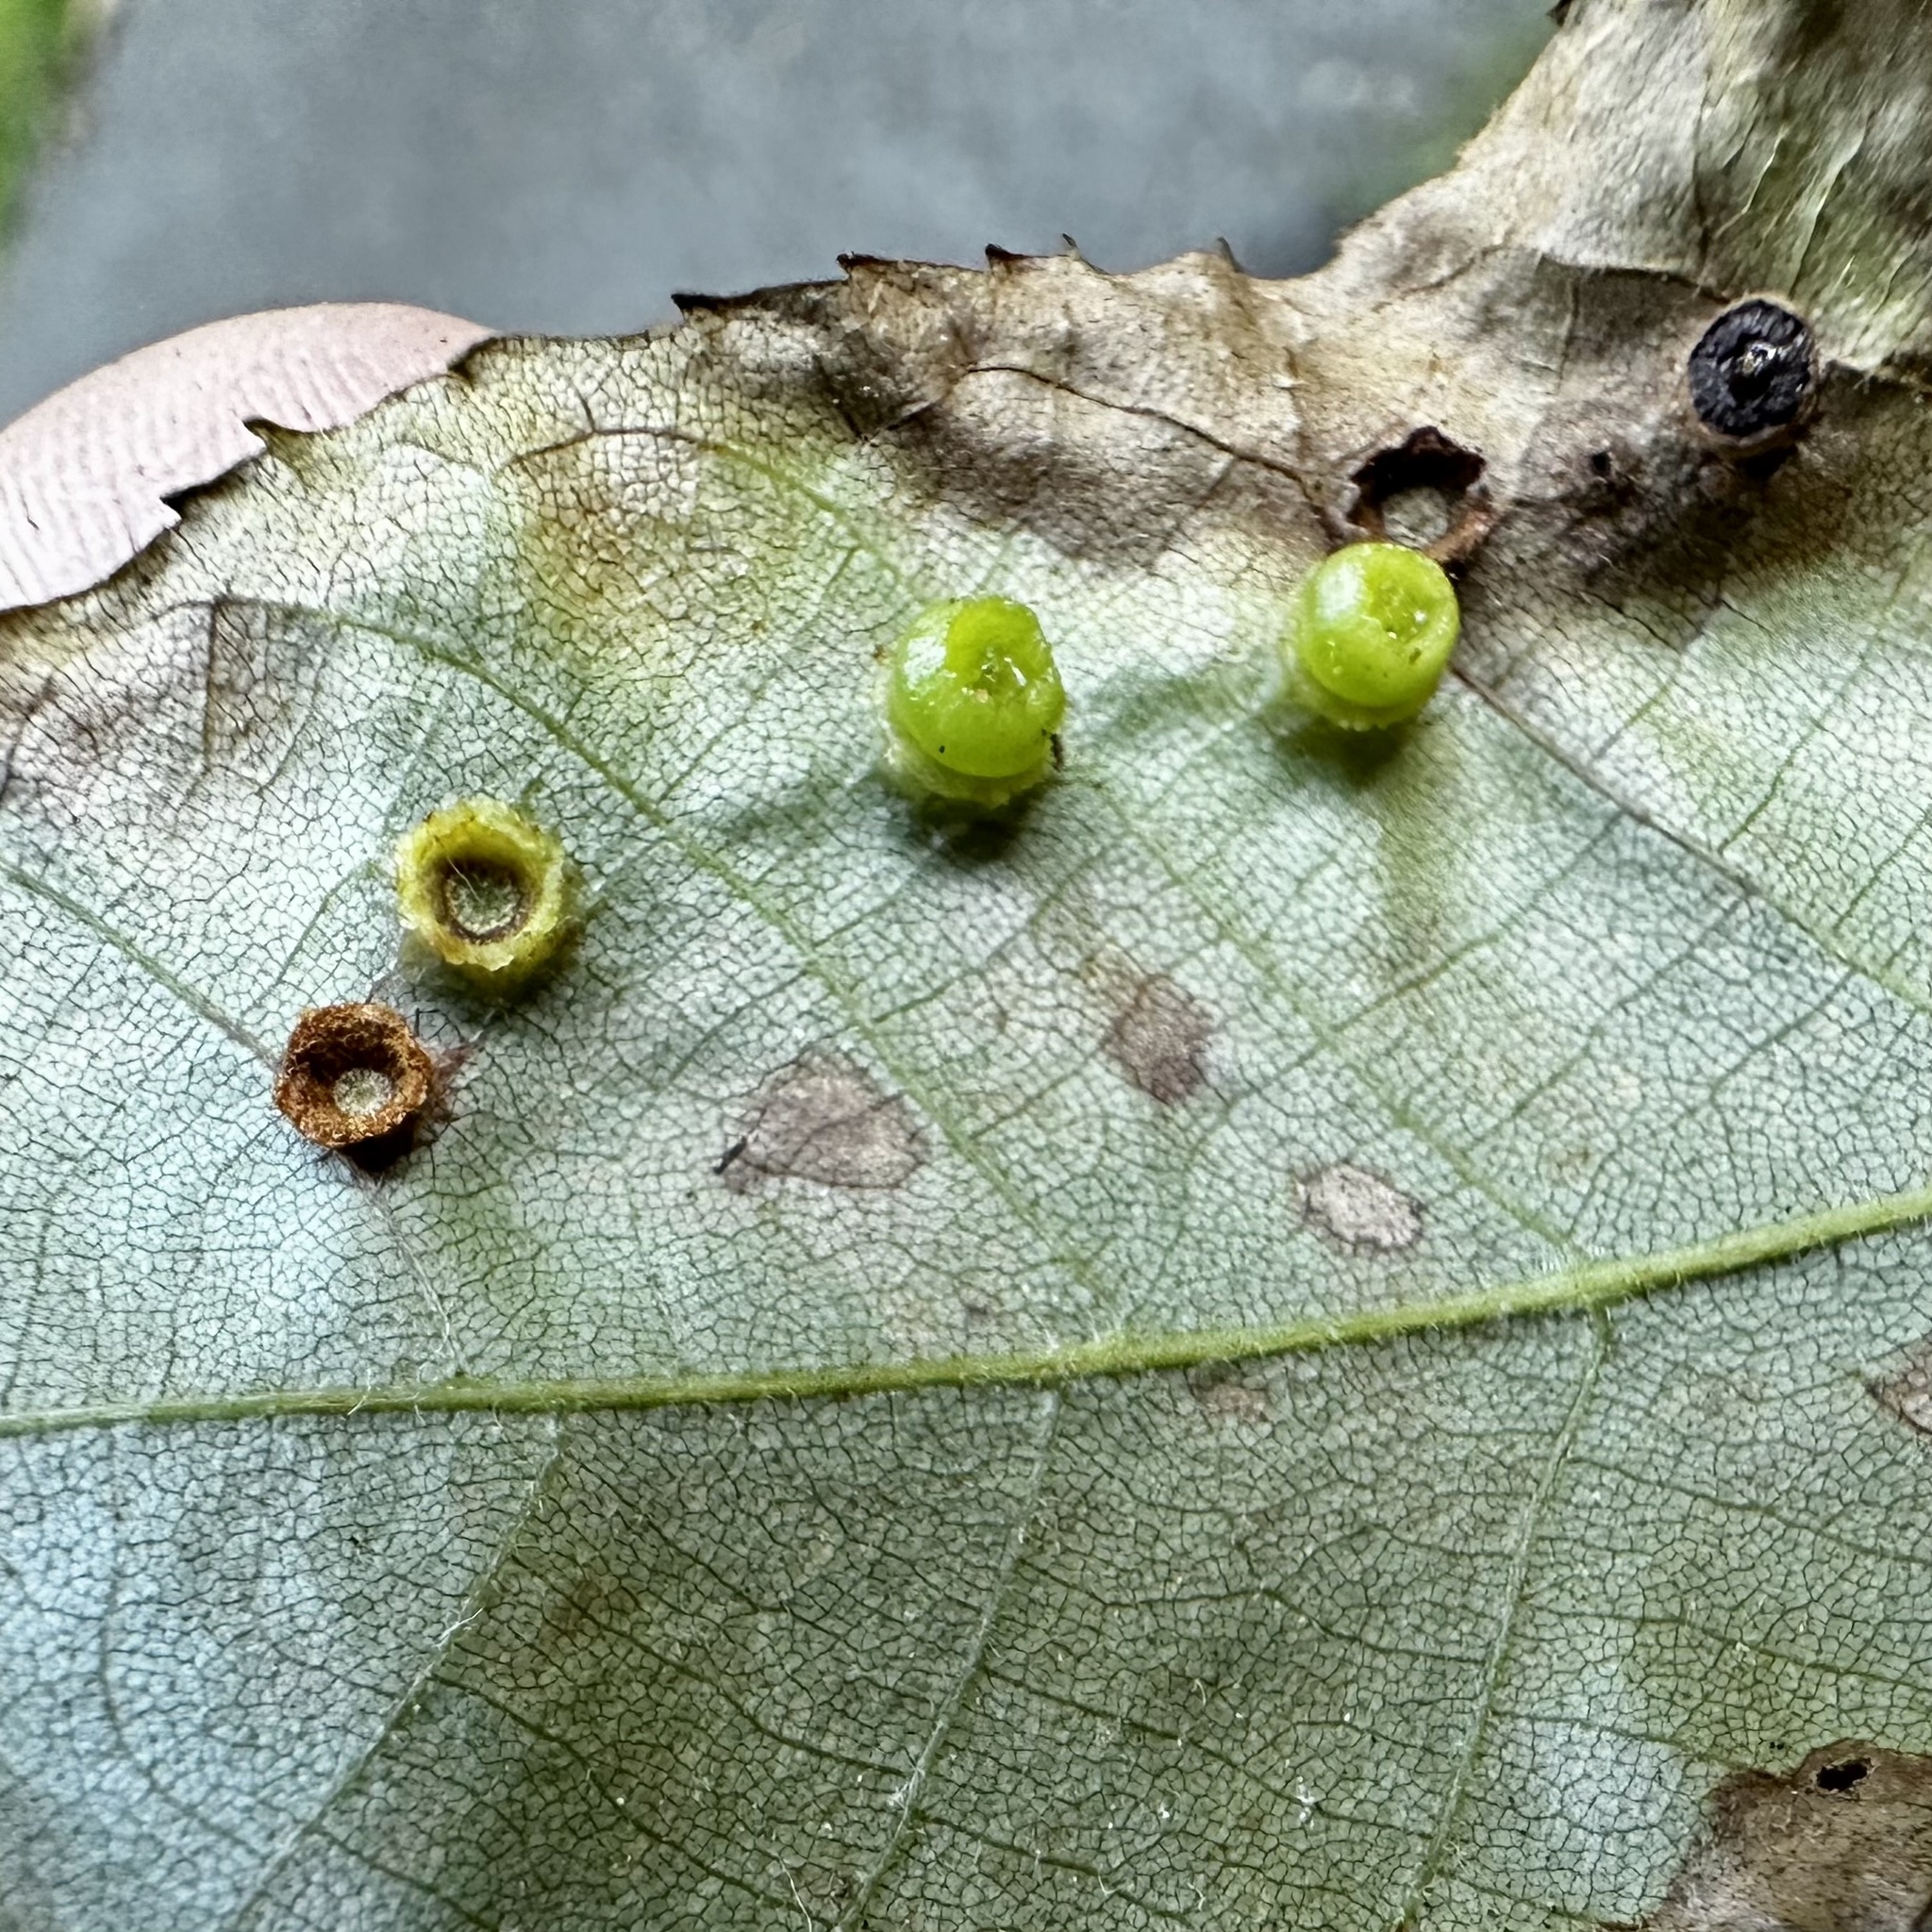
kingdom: Animalia
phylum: Arthropoda
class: Insecta
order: Diptera
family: Cecidomyiidae
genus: Caryomyia
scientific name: Caryomyia melicrustum
